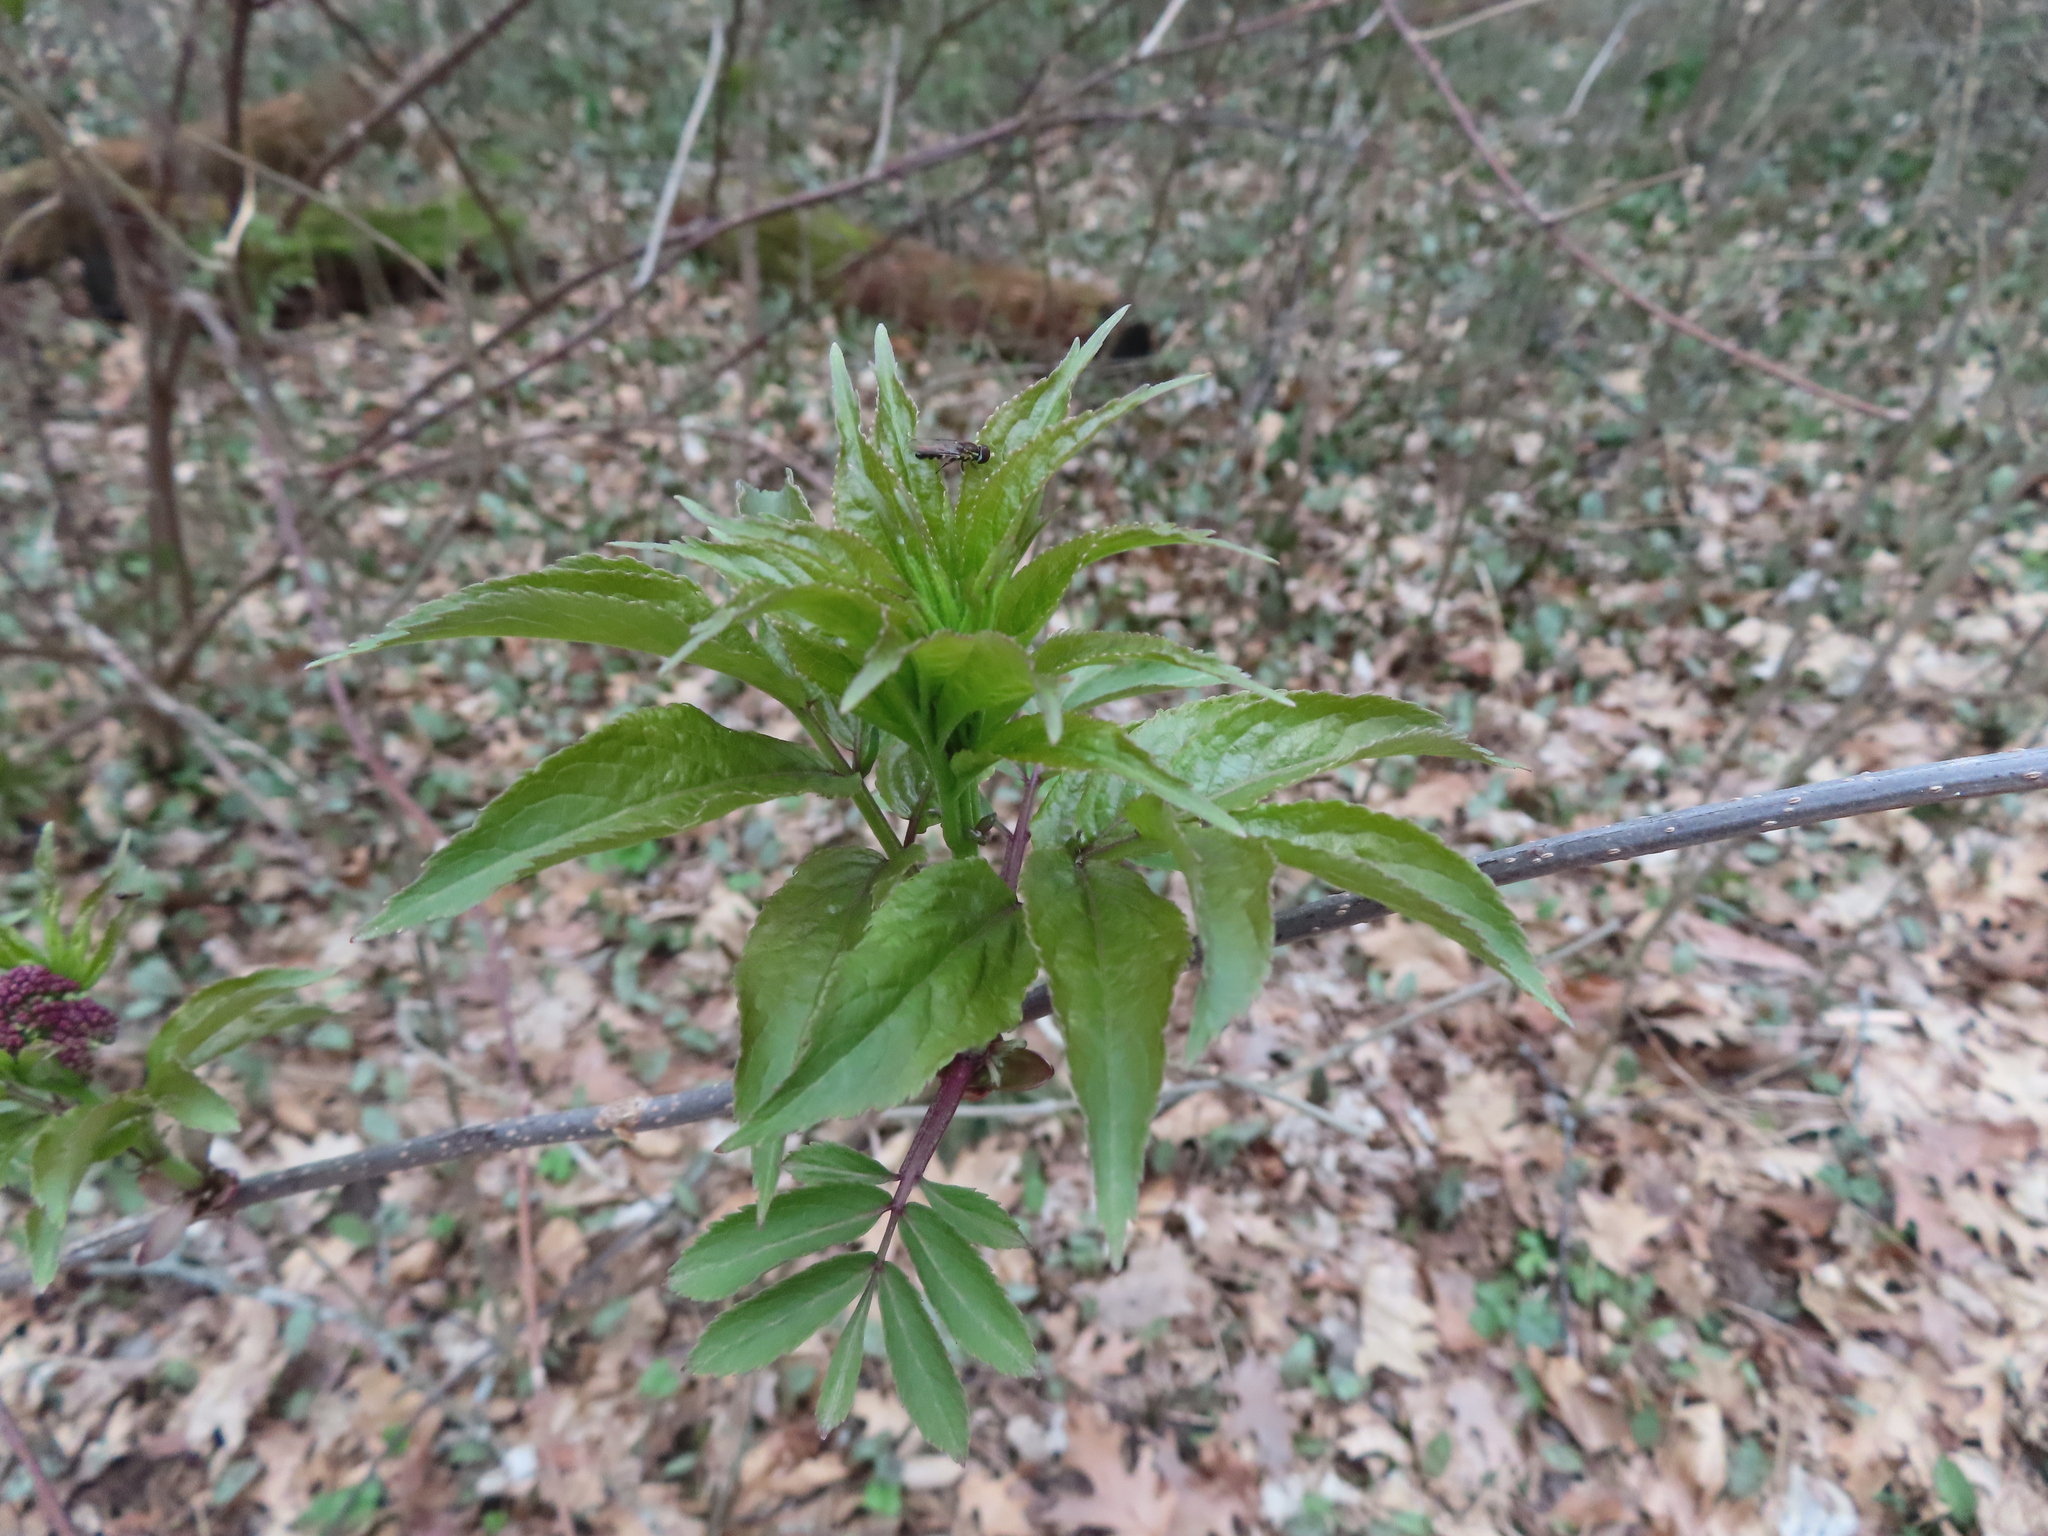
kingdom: Plantae
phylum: Tracheophyta
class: Magnoliopsida
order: Dipsacales
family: Viburnaceae
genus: Sambucus
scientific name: Sambucus racemosa
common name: Red-berried elder
